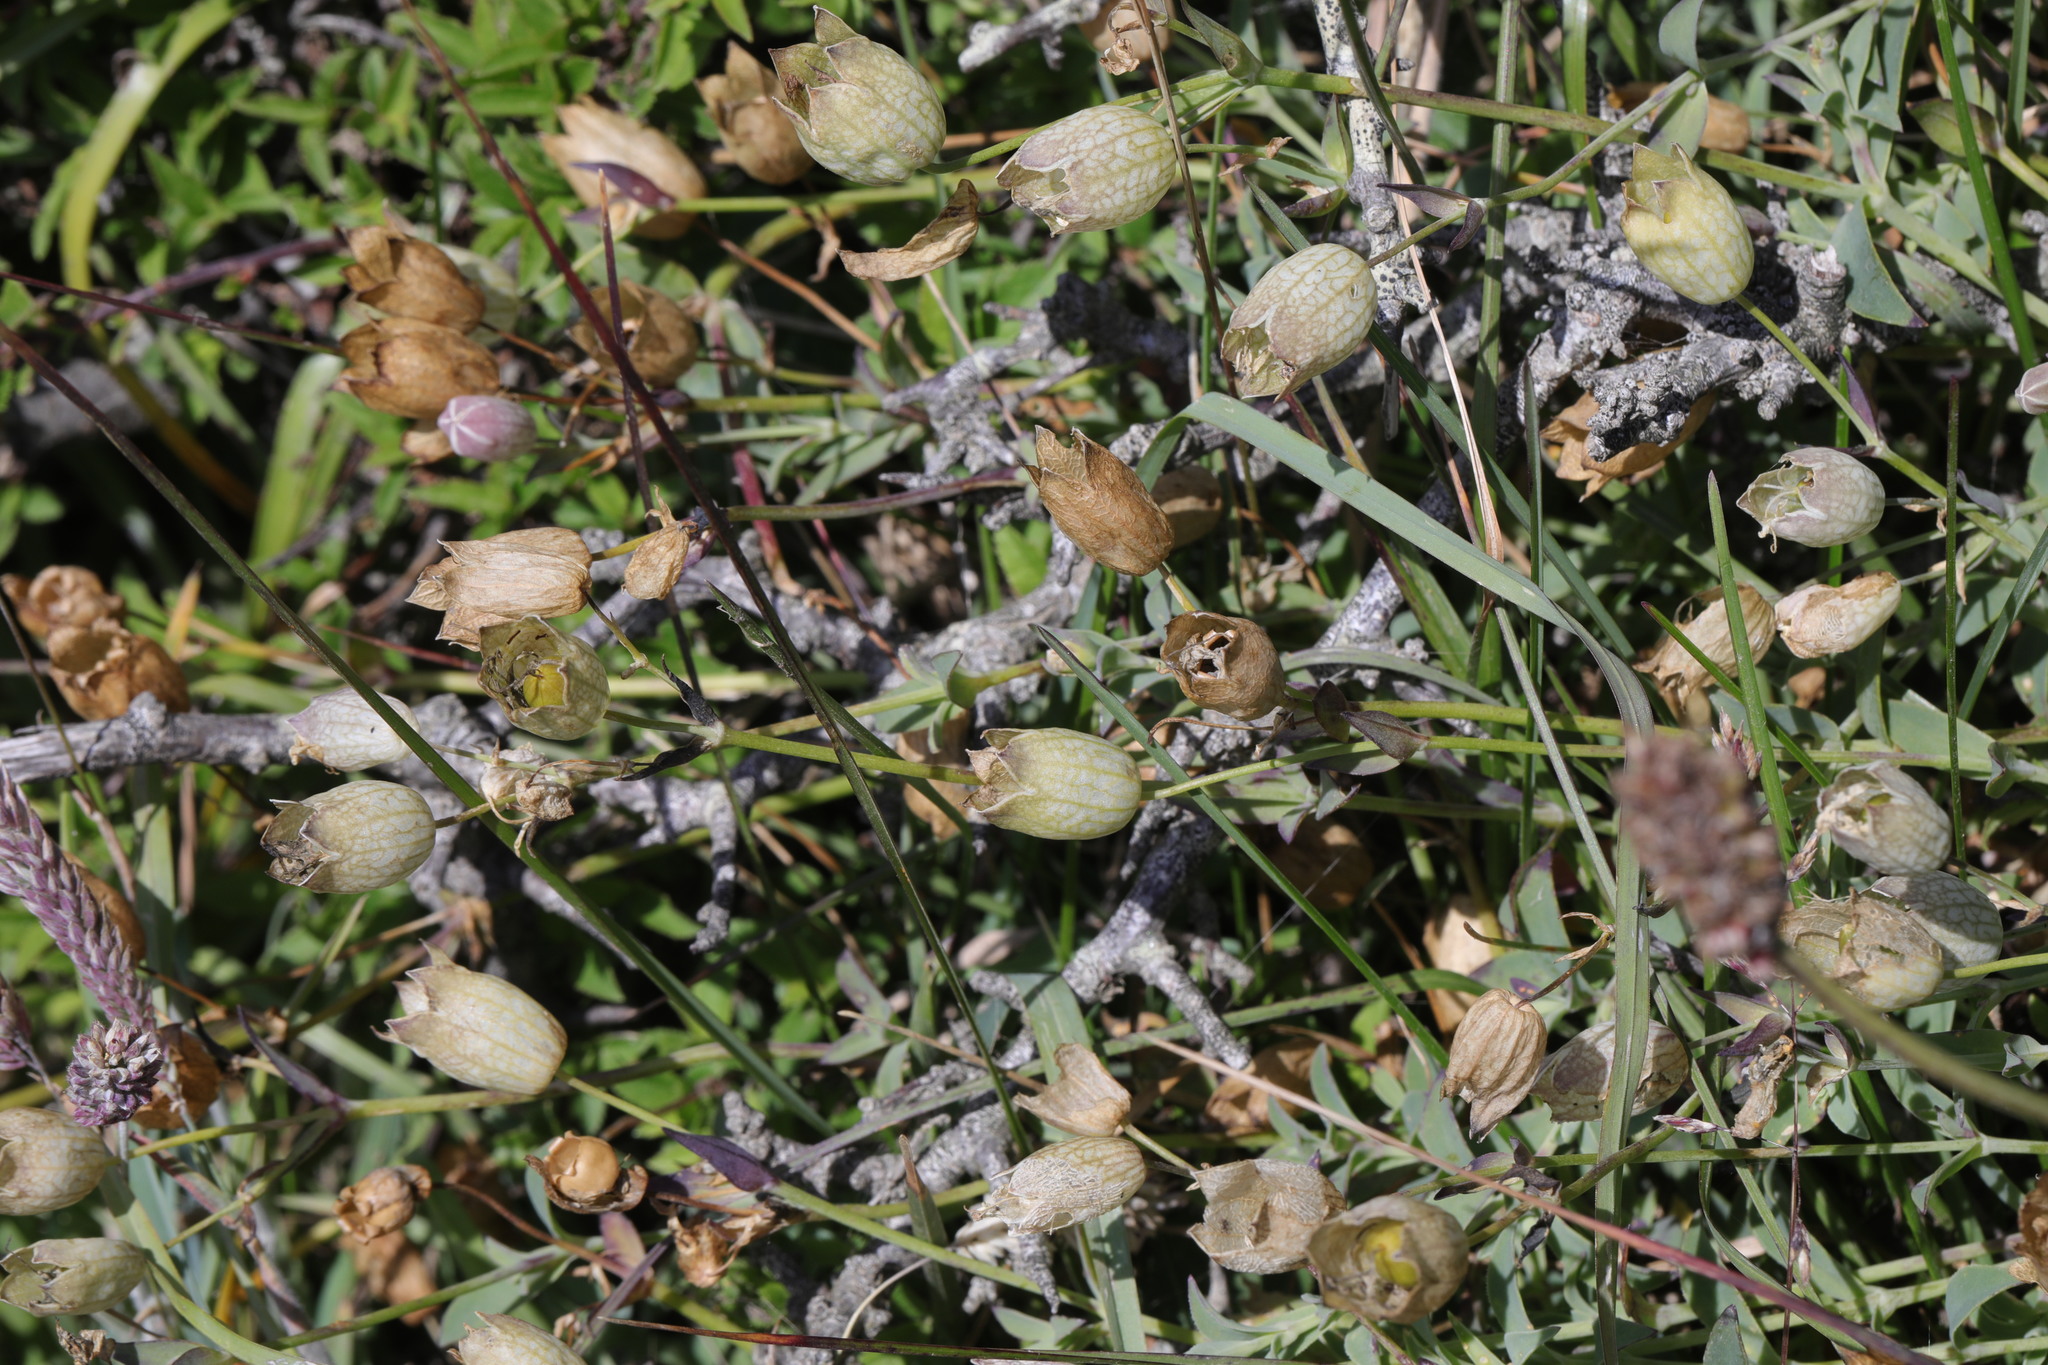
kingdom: Plantae
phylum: Tracheophyta
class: Magnoliopsida
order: Caryophyllales
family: Caryophyllaceae
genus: Silene
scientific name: Silene uniflora
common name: Sea campion
